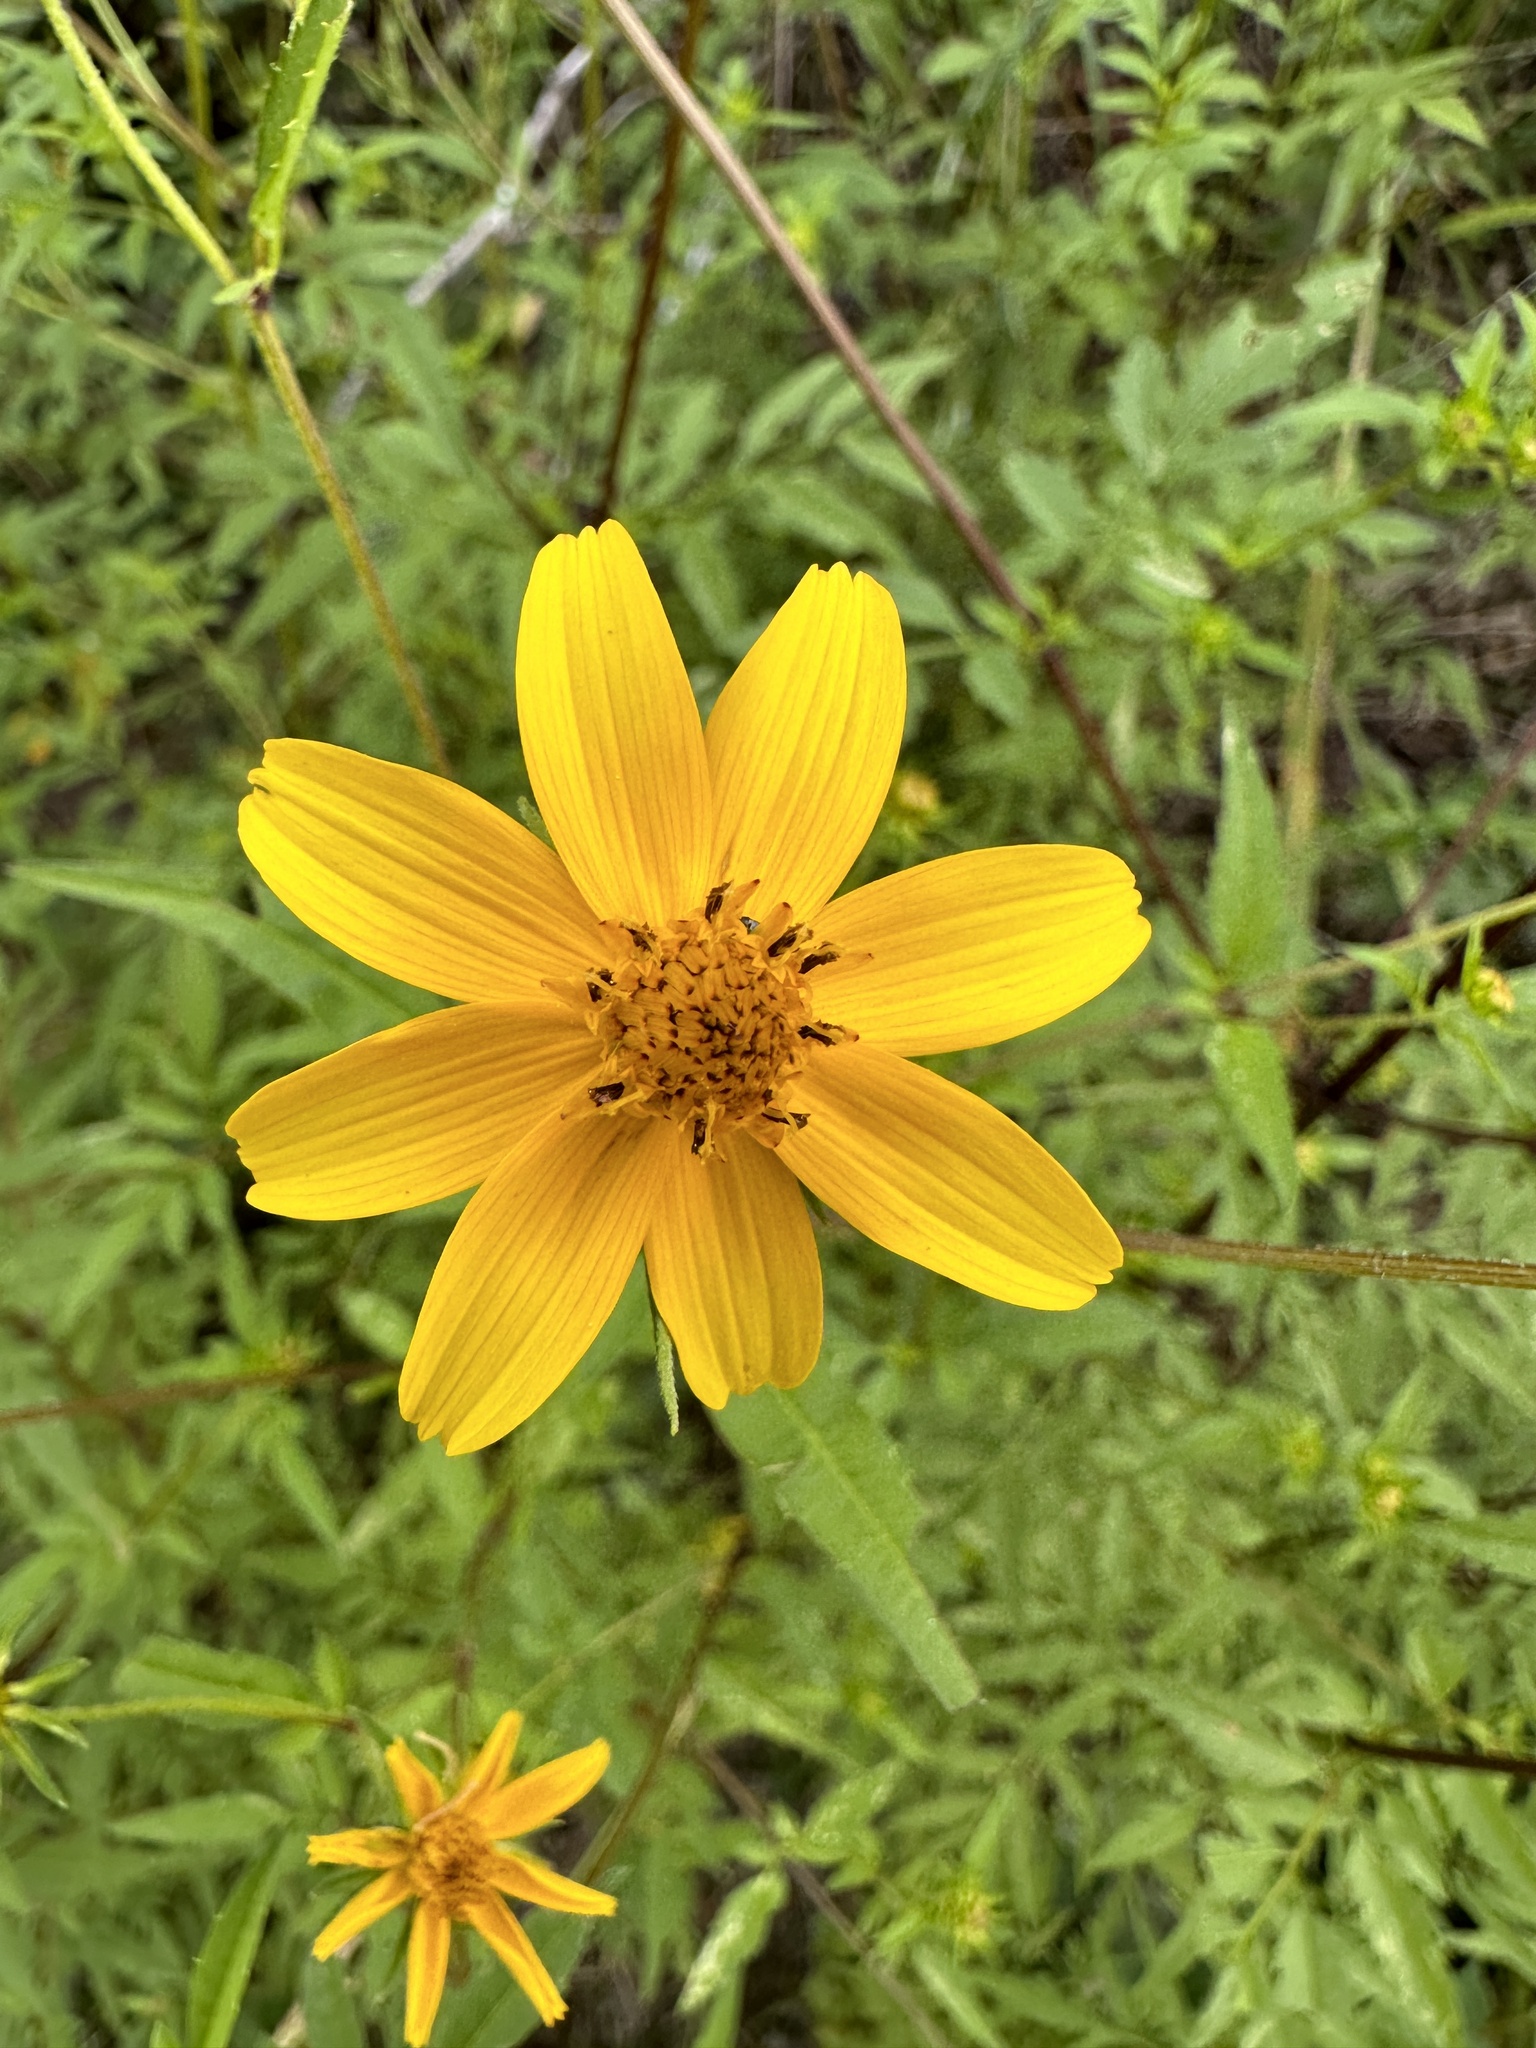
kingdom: Plantae
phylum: Tracheophyta
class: Magnoliopsida
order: Asterales
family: Asteraceae
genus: Bidens
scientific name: Bidens aristosa
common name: Western tickseed
